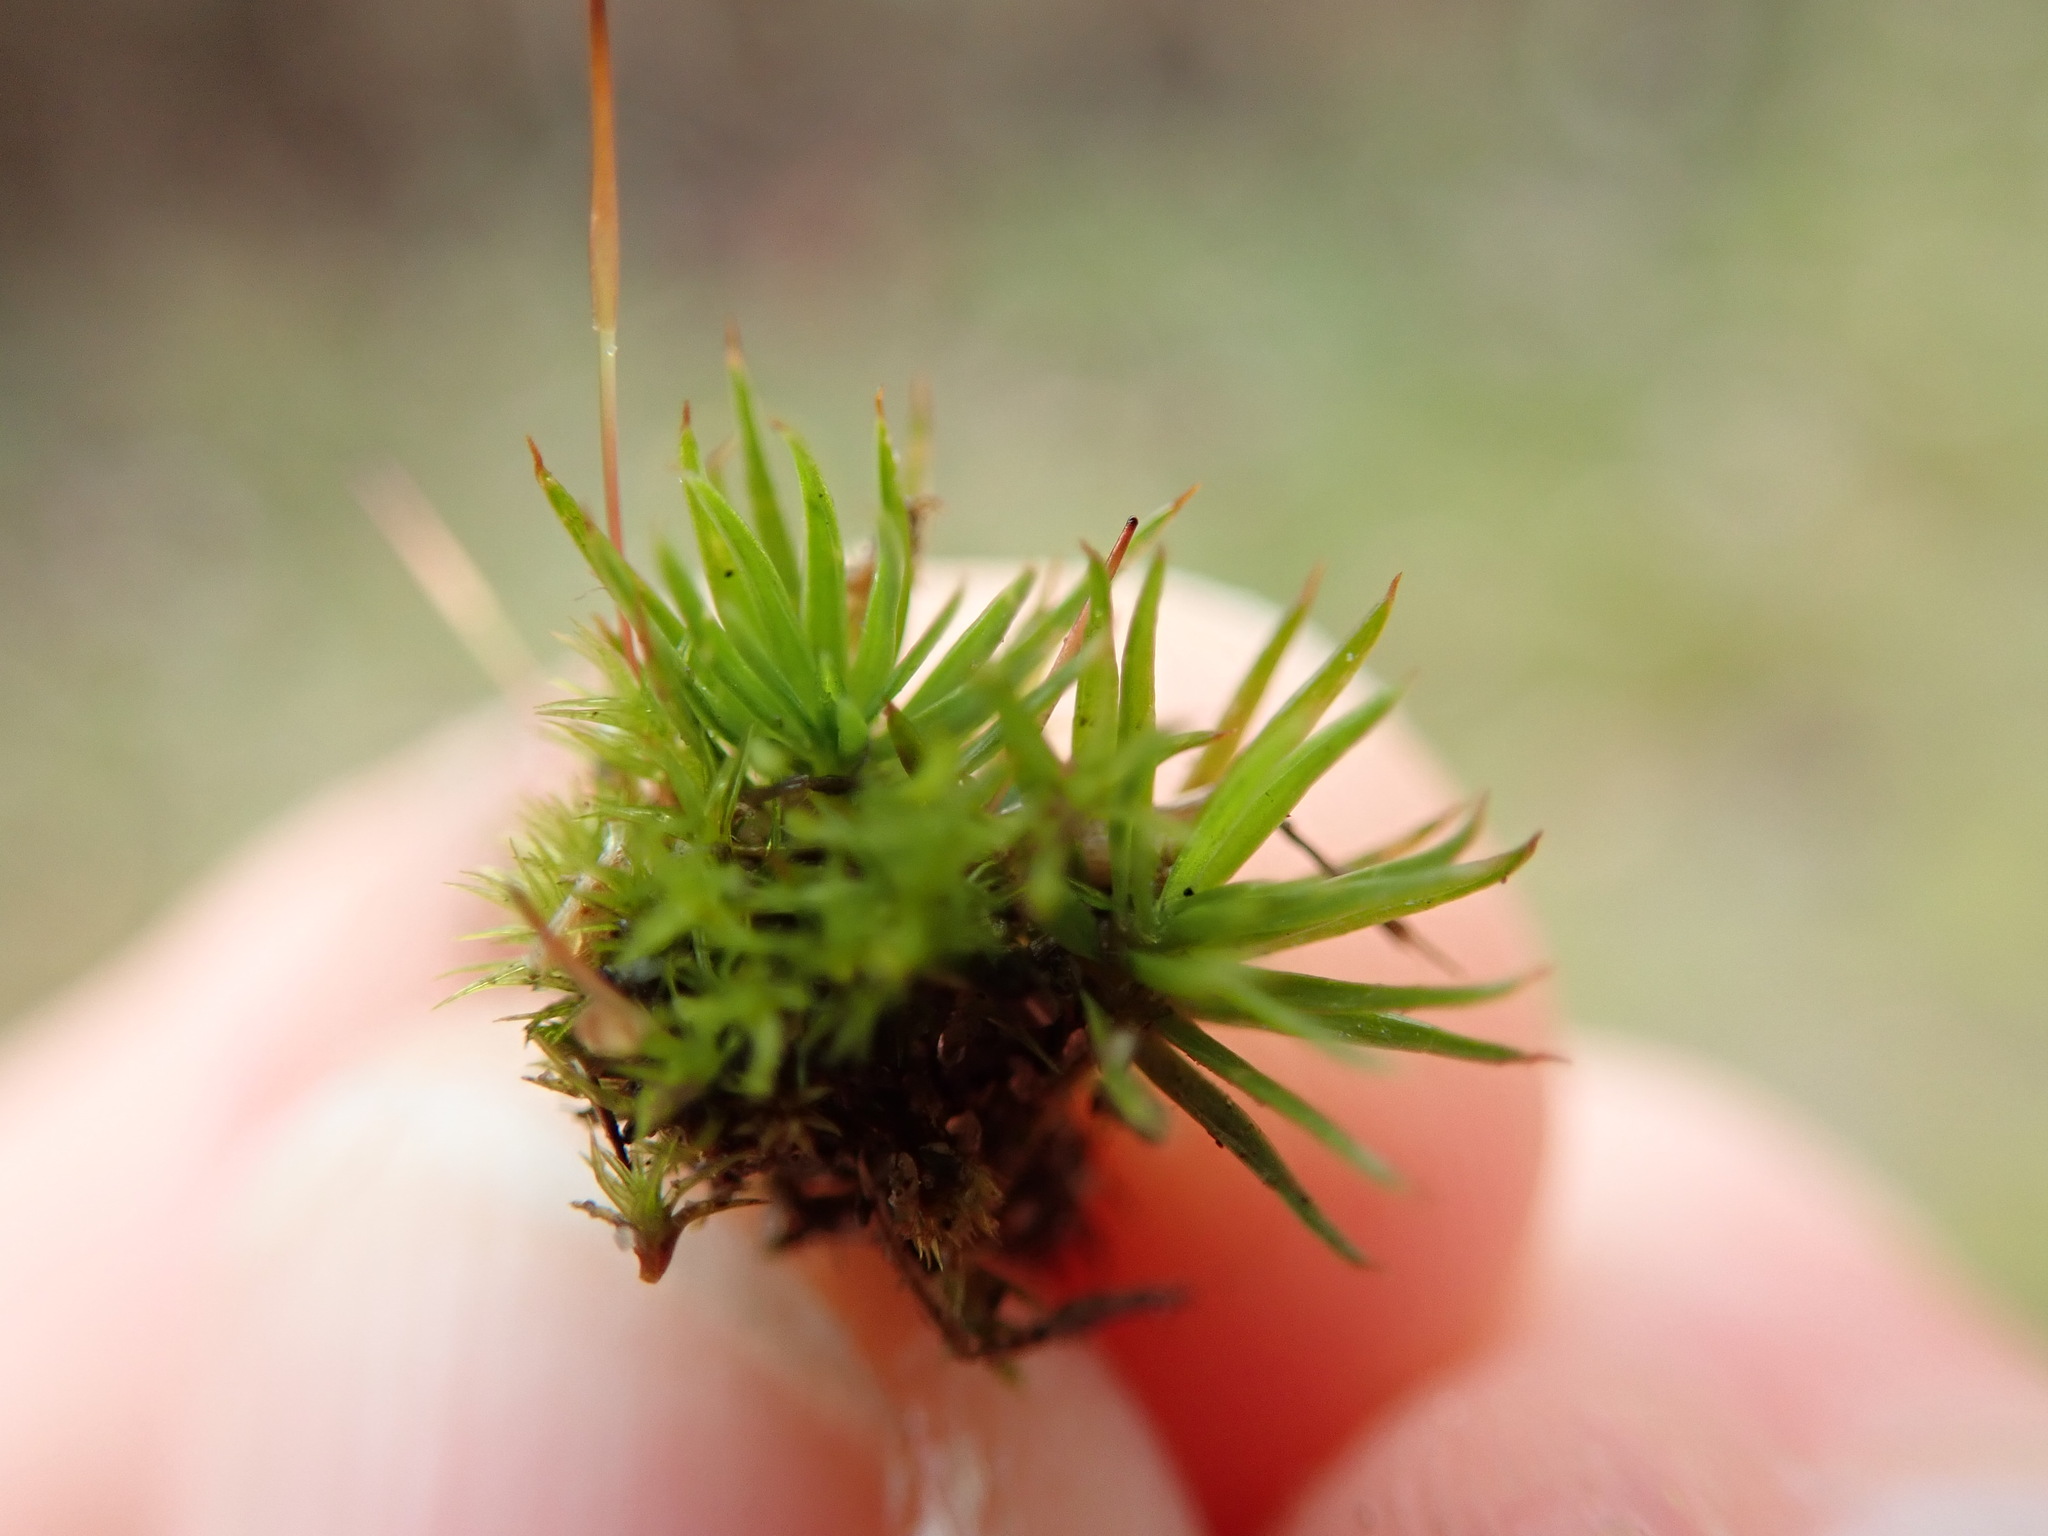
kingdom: Plantae
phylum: Bryophyta
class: Polytrichopsida
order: Polytrichales
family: Polytrichaceae
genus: Polytrichum
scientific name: Polytrichum juniperinum
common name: Juniper haircap moss
